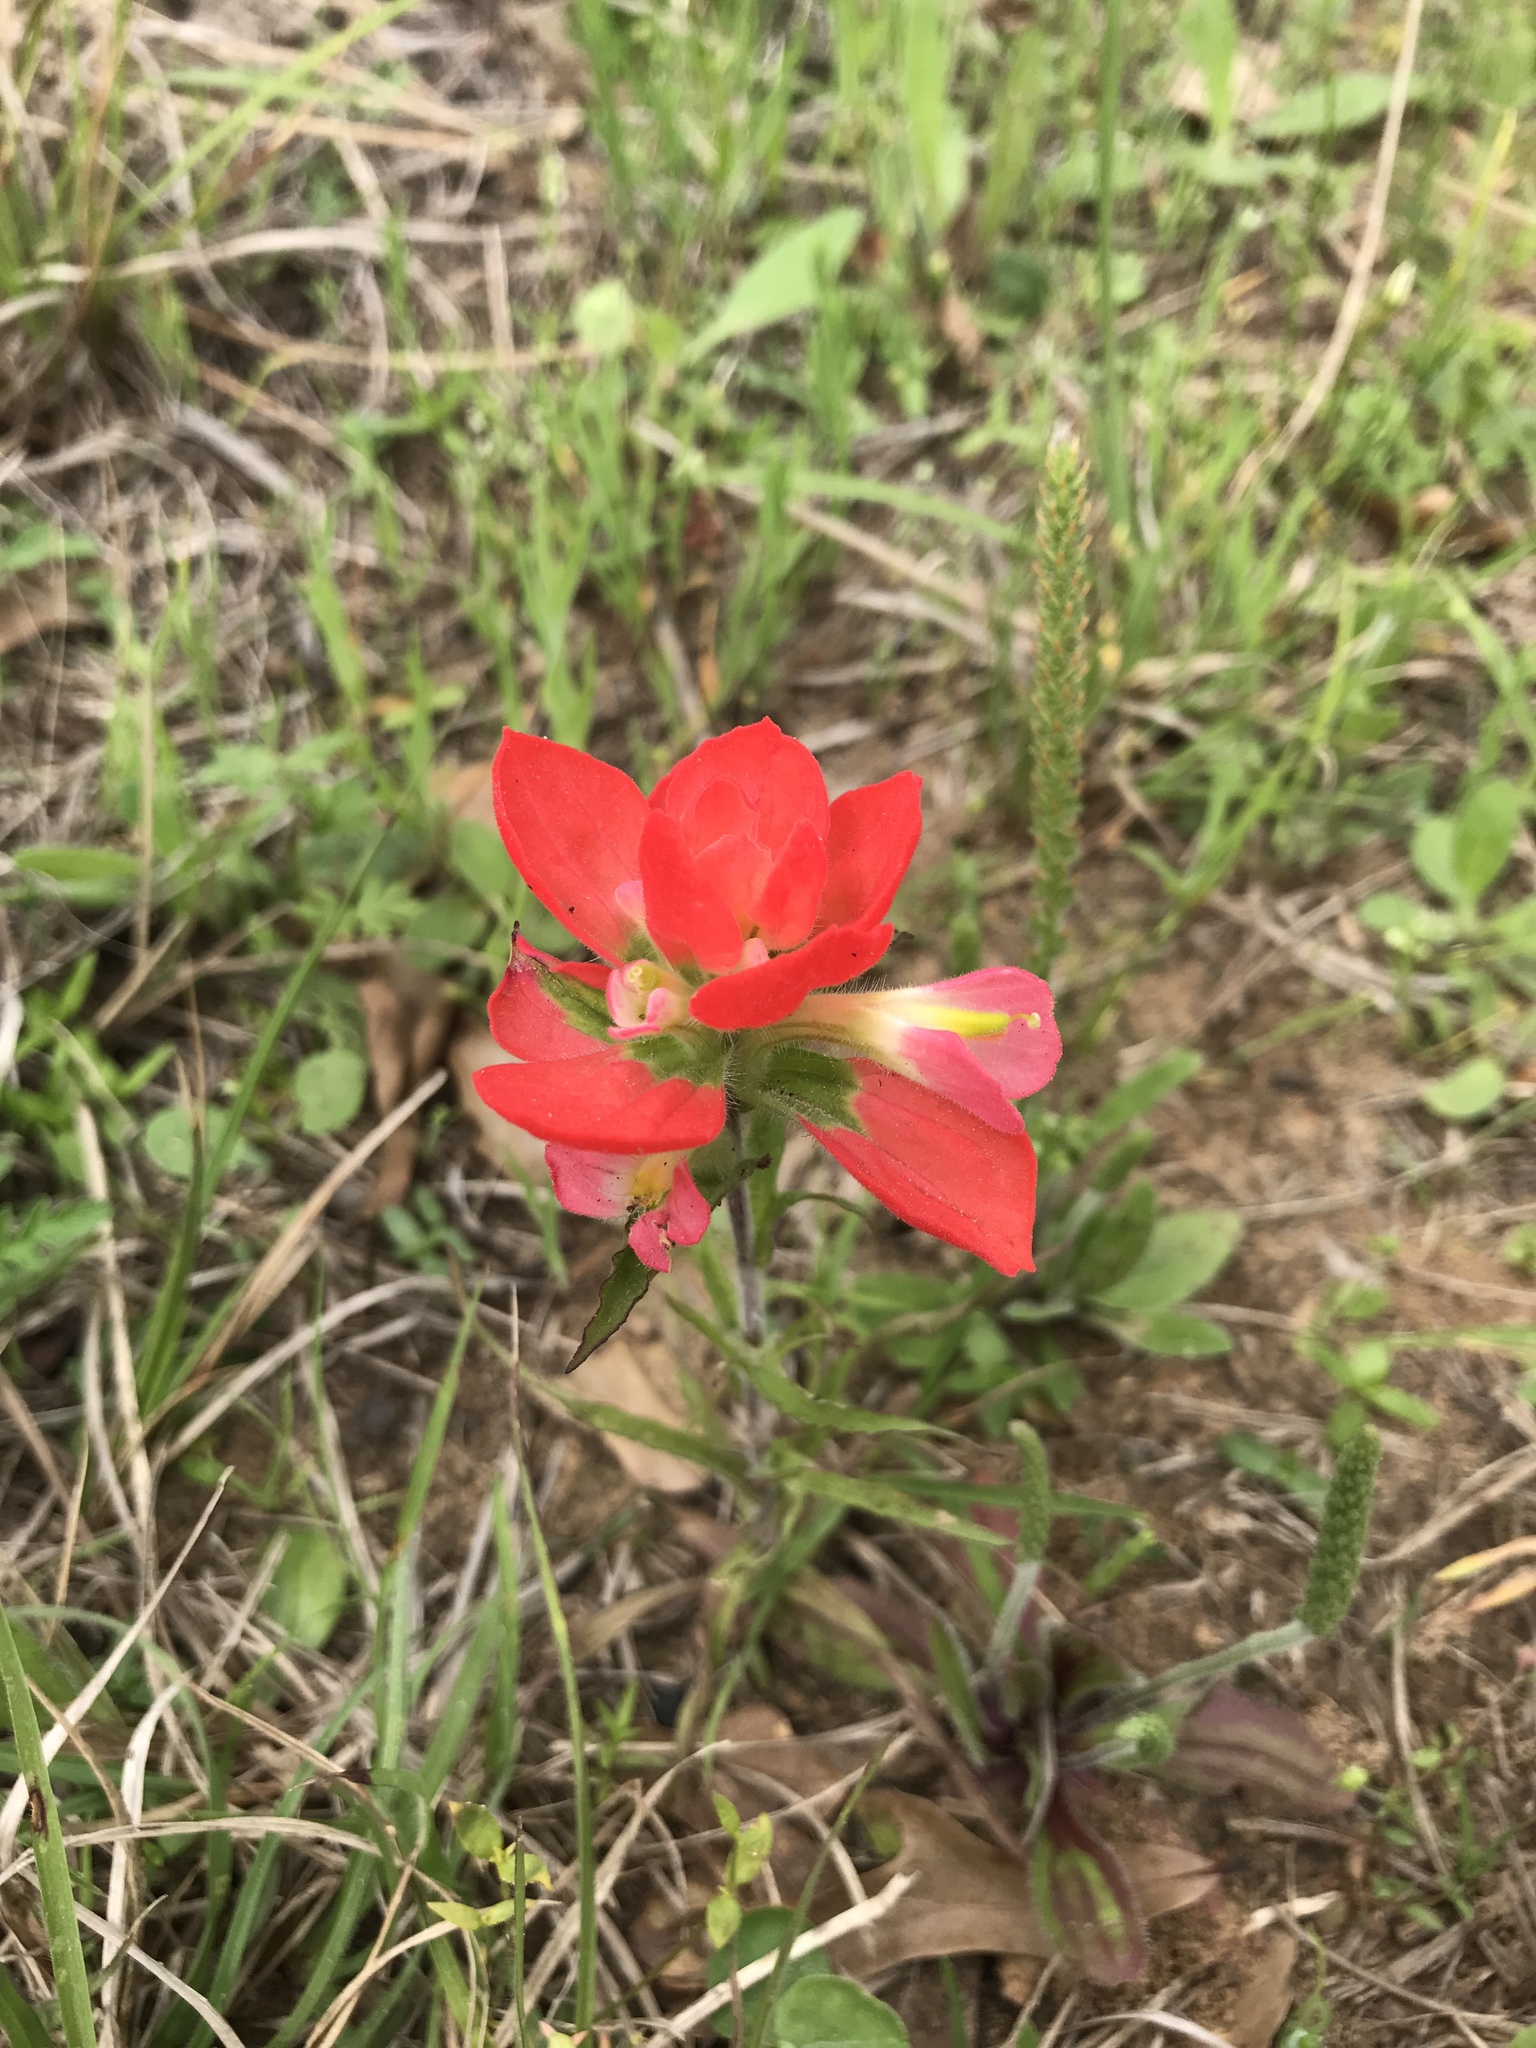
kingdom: Plantae
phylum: Tracheophyta
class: Magnoliopsida
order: Lamiales
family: Orobanchaceae
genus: Castilleja
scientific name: Castilleja indivisa
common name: Texas paintbrush
